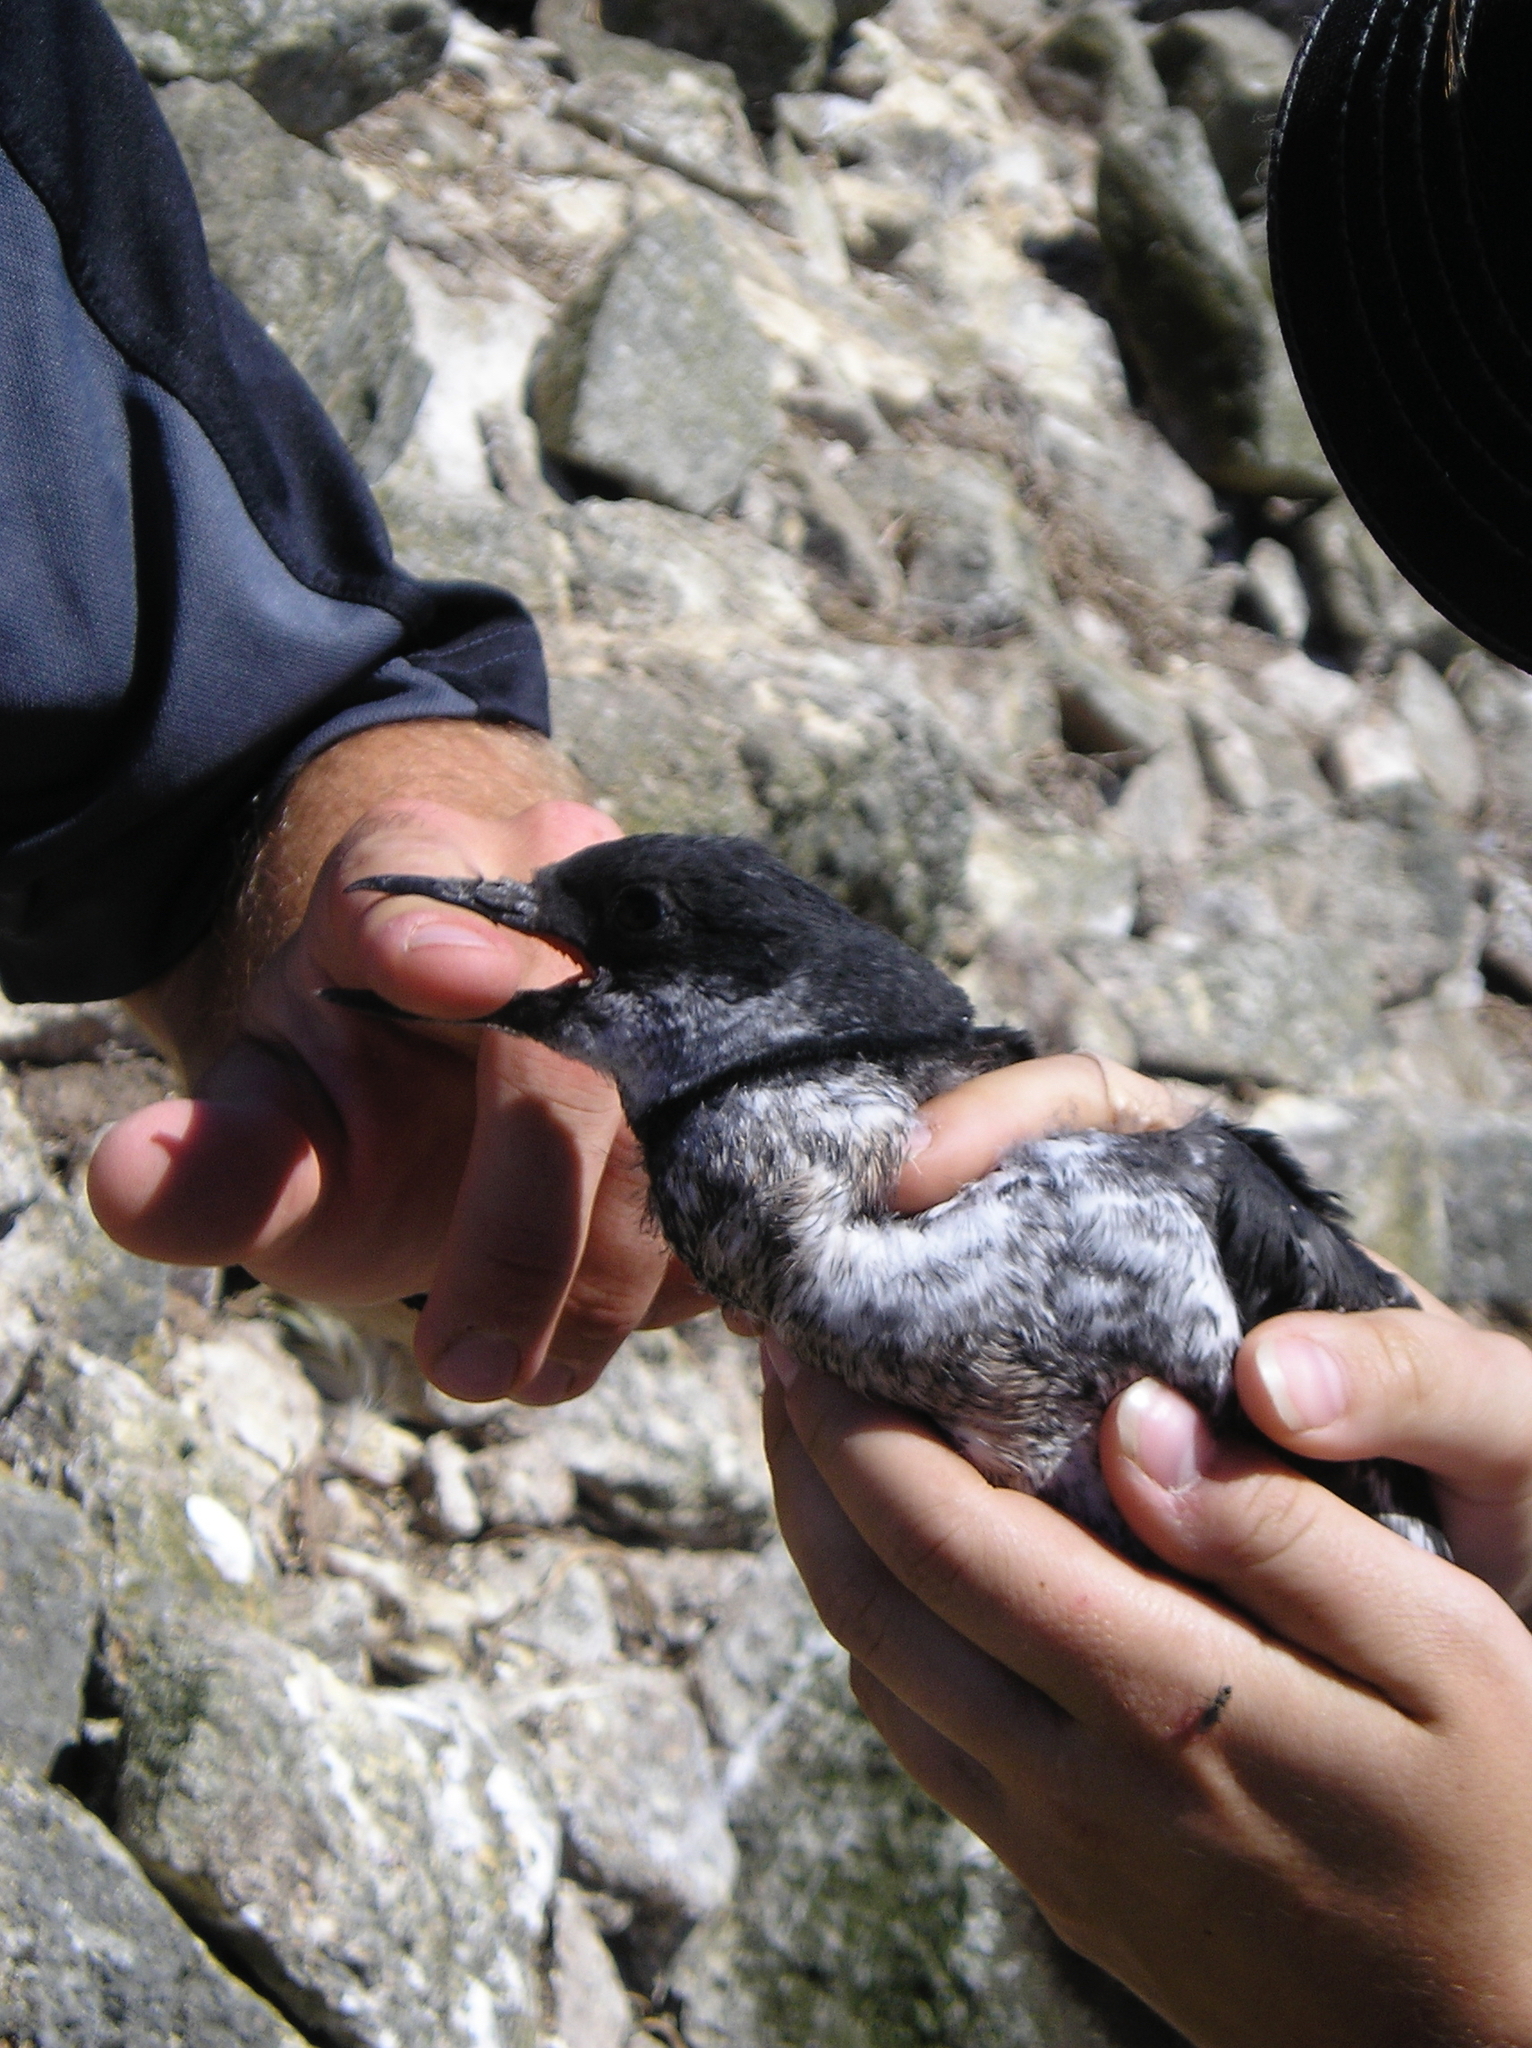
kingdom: Animalia
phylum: Chordata
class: Aves
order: Charadriiformes
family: Alcidae
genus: Cepphus
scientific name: Cepphus columba
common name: Pigeon guillemot
